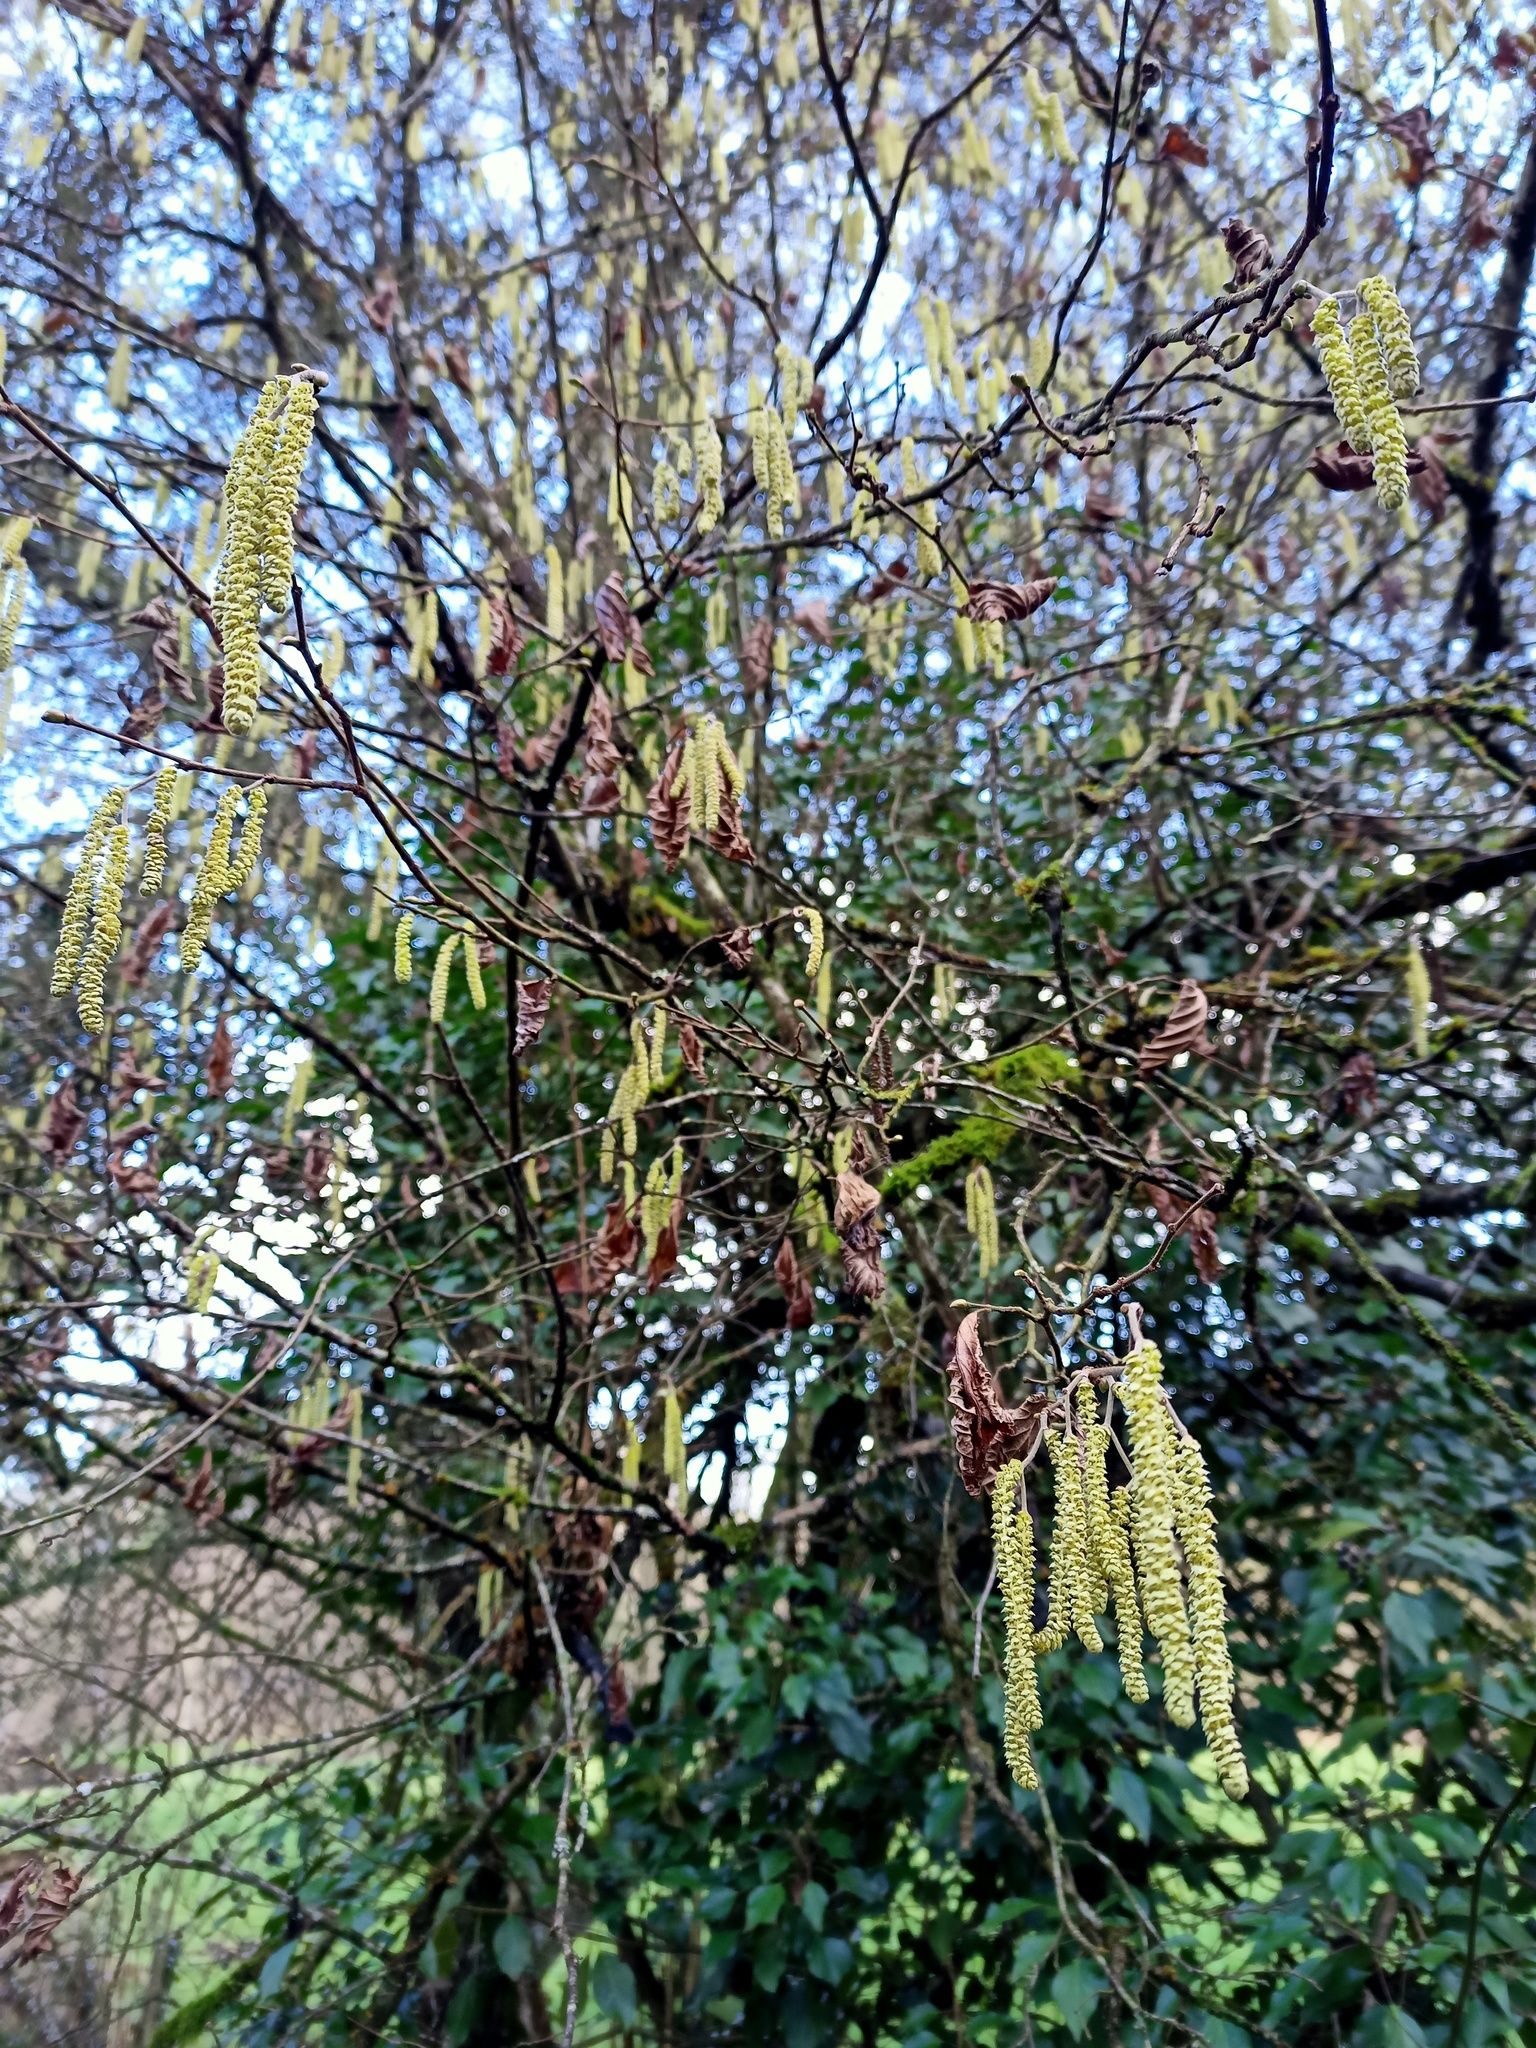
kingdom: Plantae
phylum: Tracheophyta
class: Magnoliopsida
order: Fagales
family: Betulaceae
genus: Corylus
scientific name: Corylus avellana
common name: European hazel
